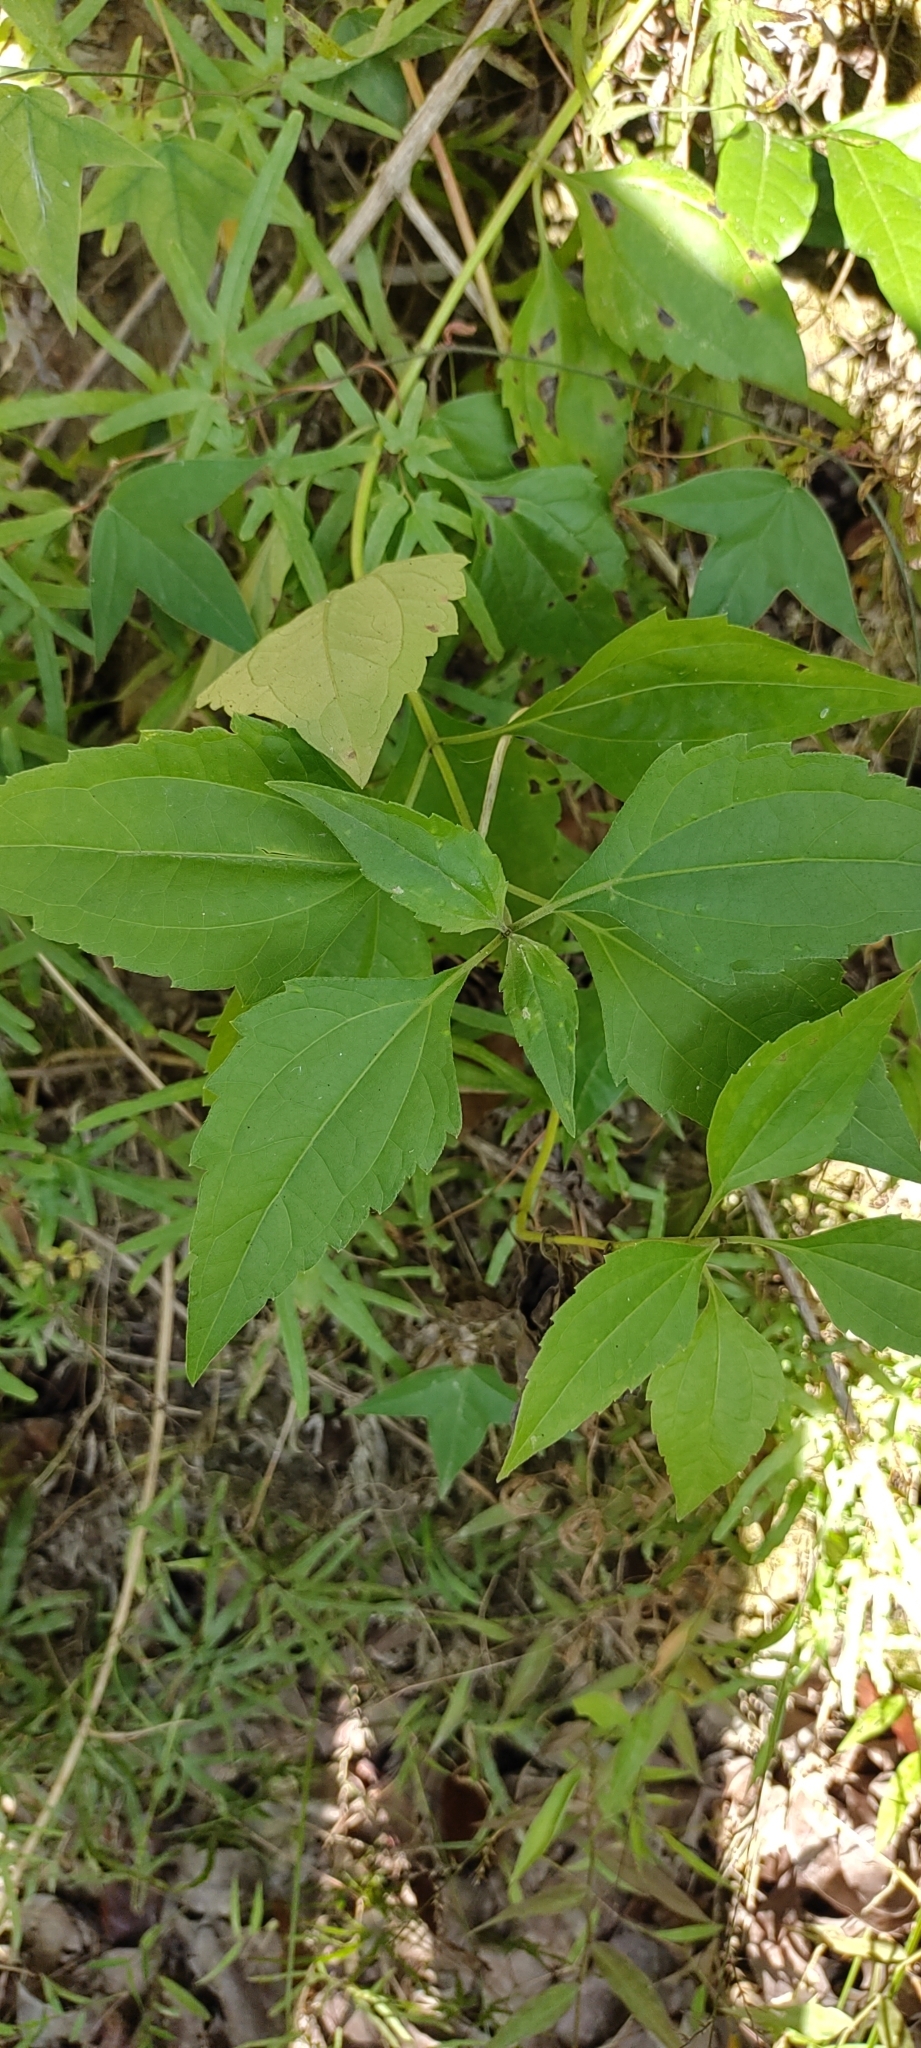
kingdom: Plantae
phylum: Tracheophyta
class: Magnoliopsida
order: Asterales
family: Asteraceae
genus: Chromolaena
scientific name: Chromolaena odorata
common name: Siamweed
